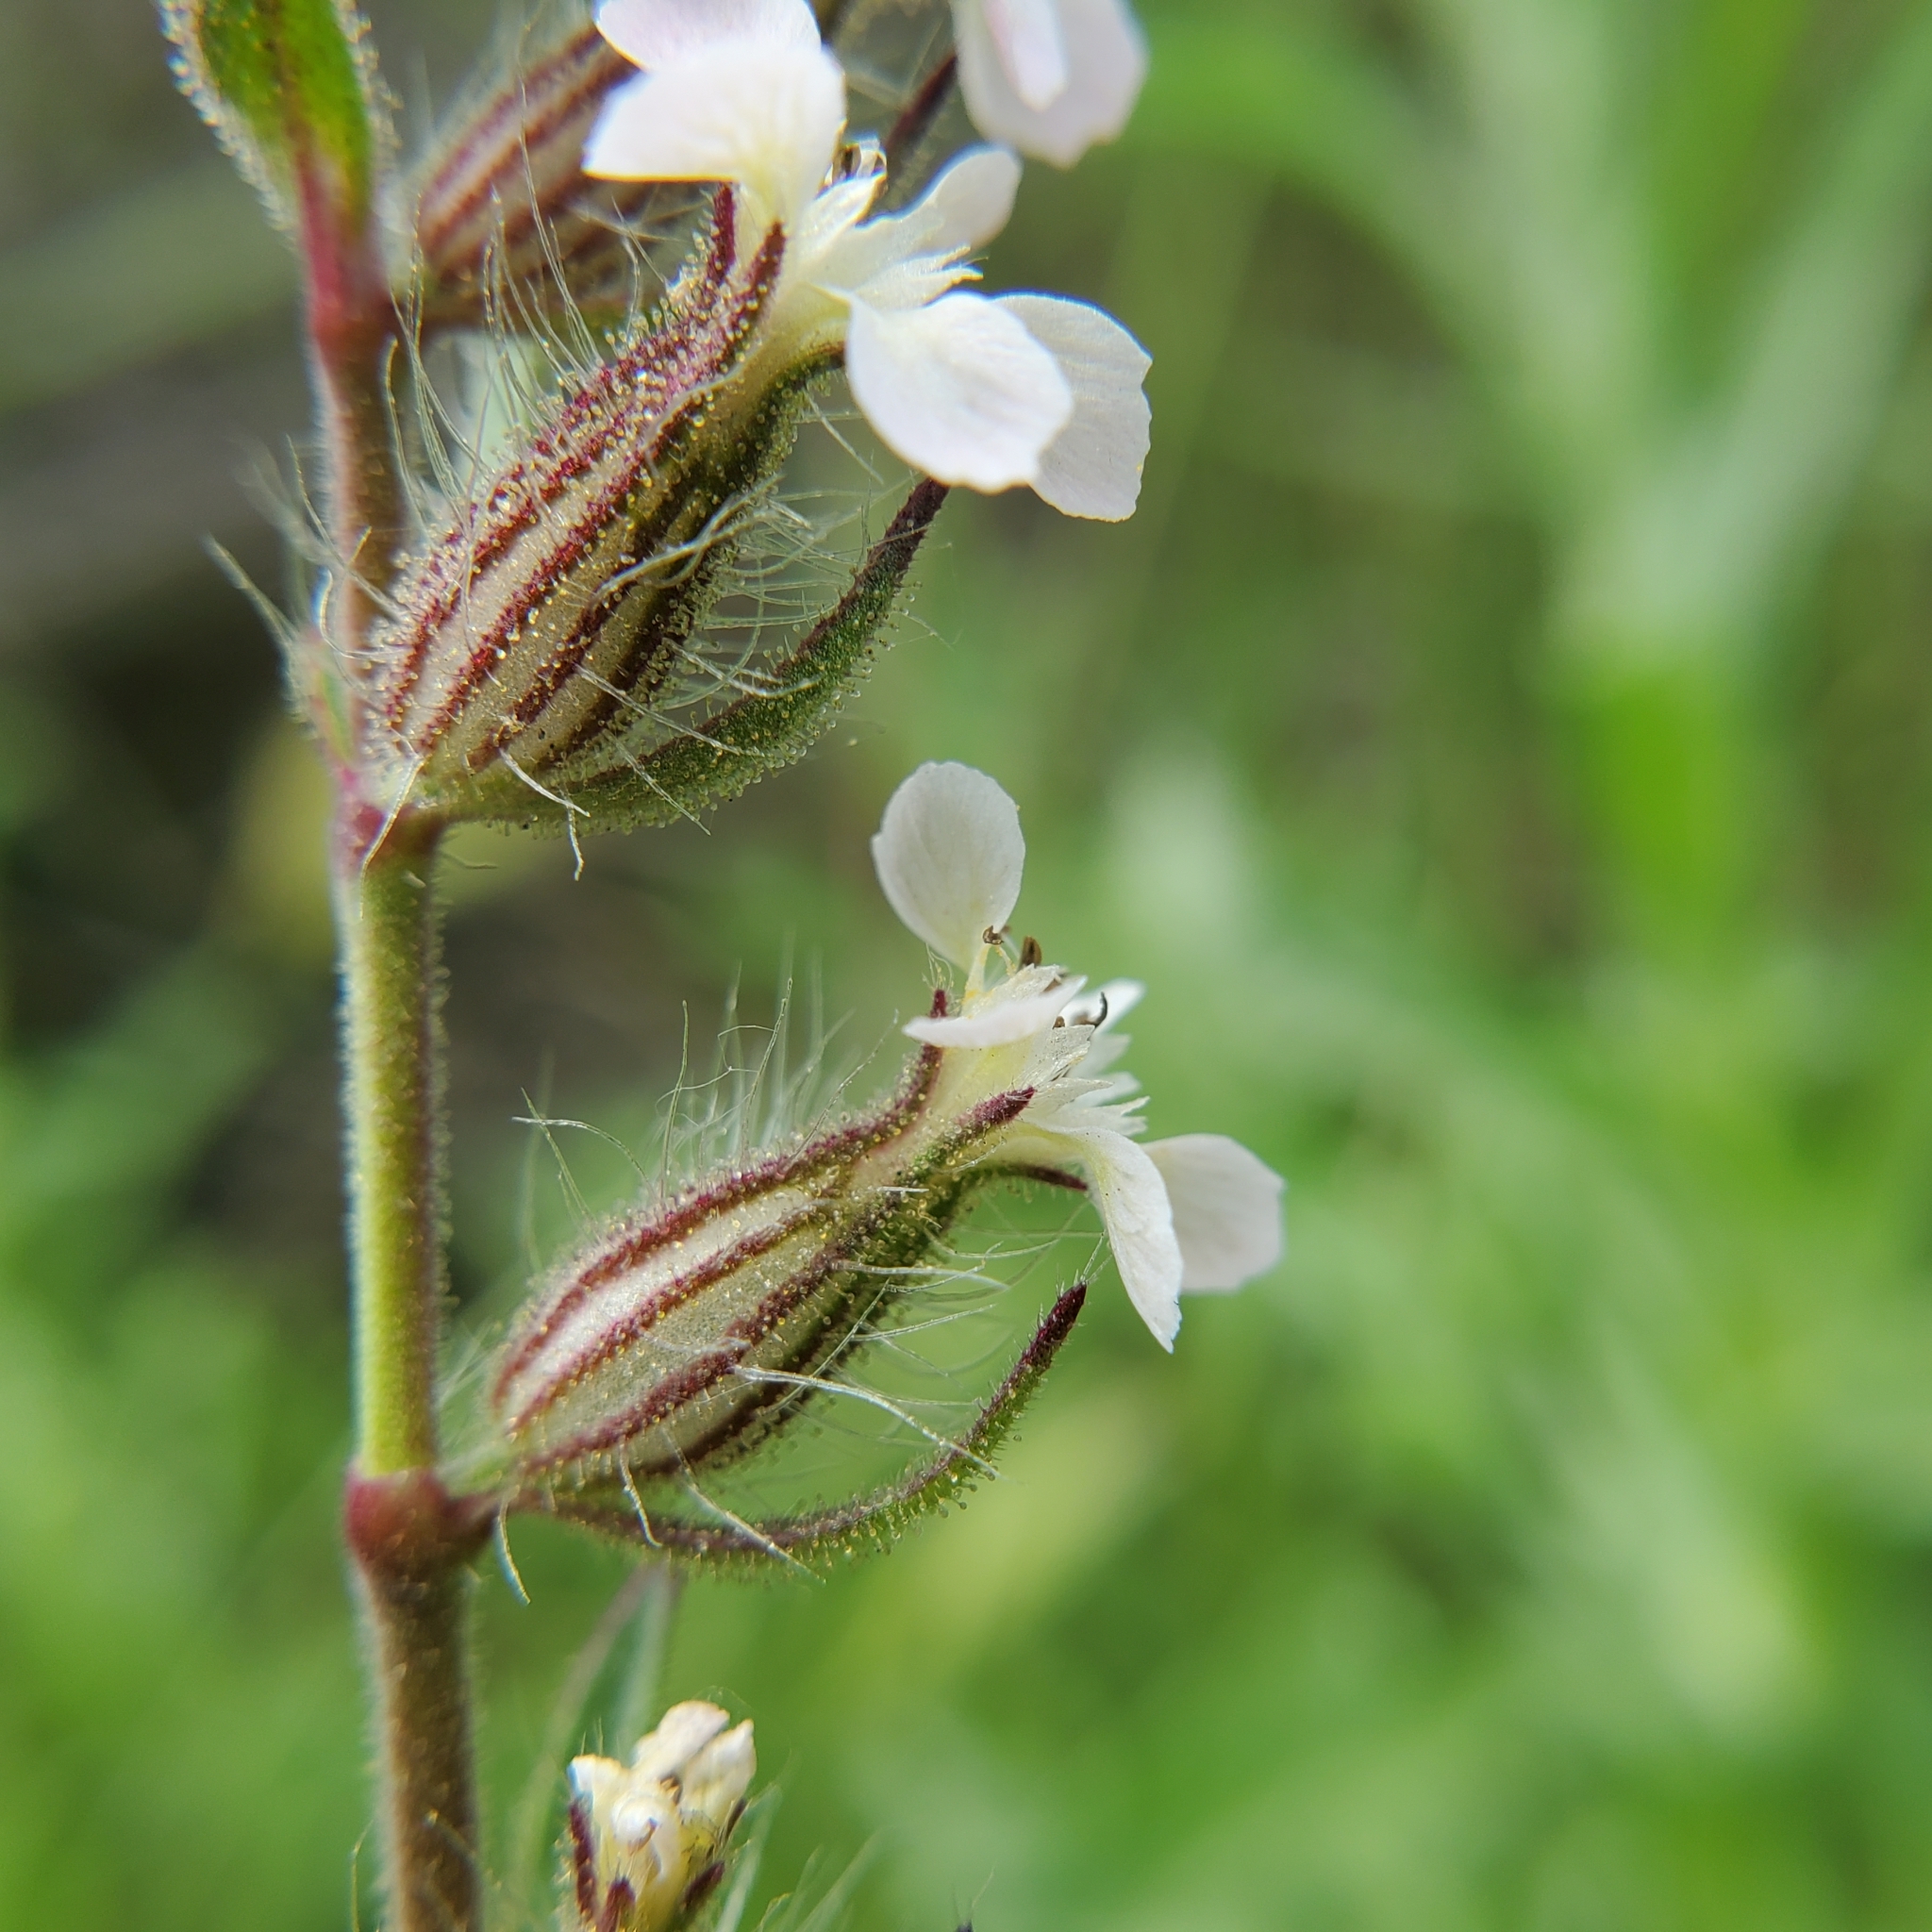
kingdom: Plantae
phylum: Tracheophyta
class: Magnoliopsida
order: Caryophyllales
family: Caryophyllaceae
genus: Silene
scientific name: Silene gallica
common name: Small-flowered catchfly
